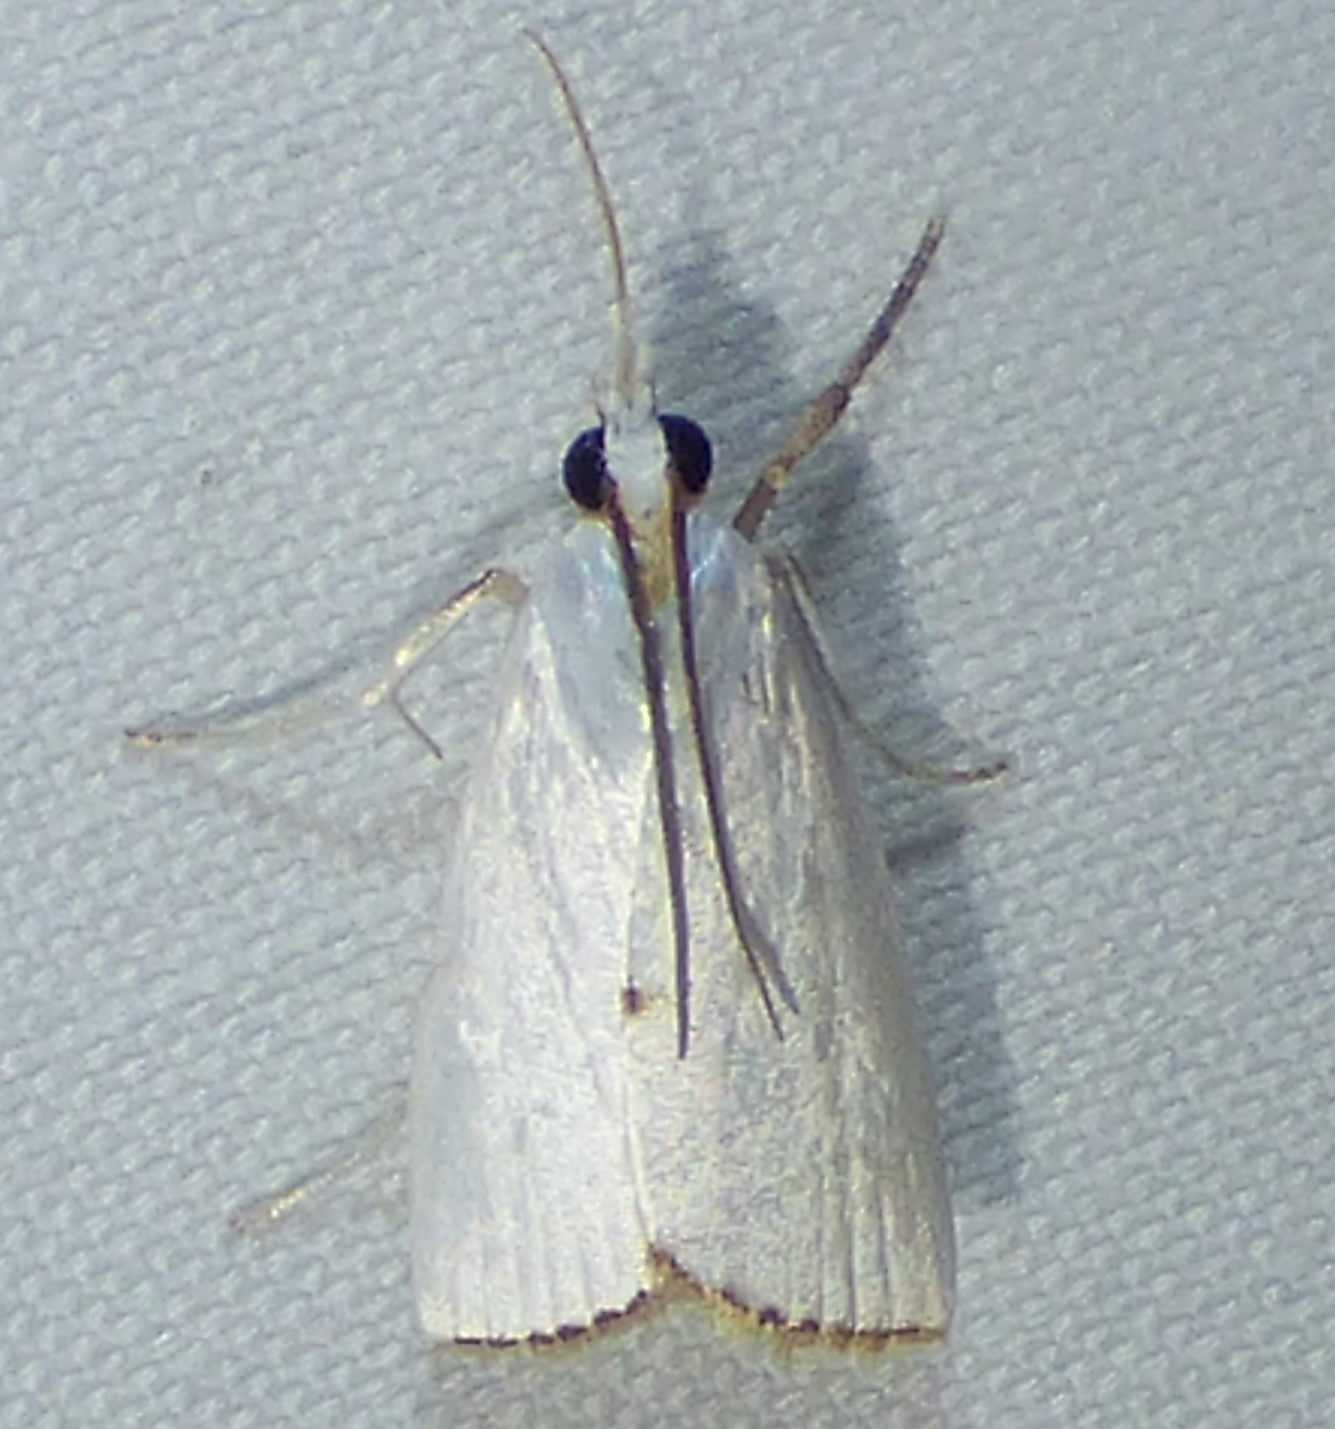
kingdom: Animalia
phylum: Arthropoda
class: Insecta
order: Lepidoptera
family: Crambidae
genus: Argyria
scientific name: Argyria nivalis
